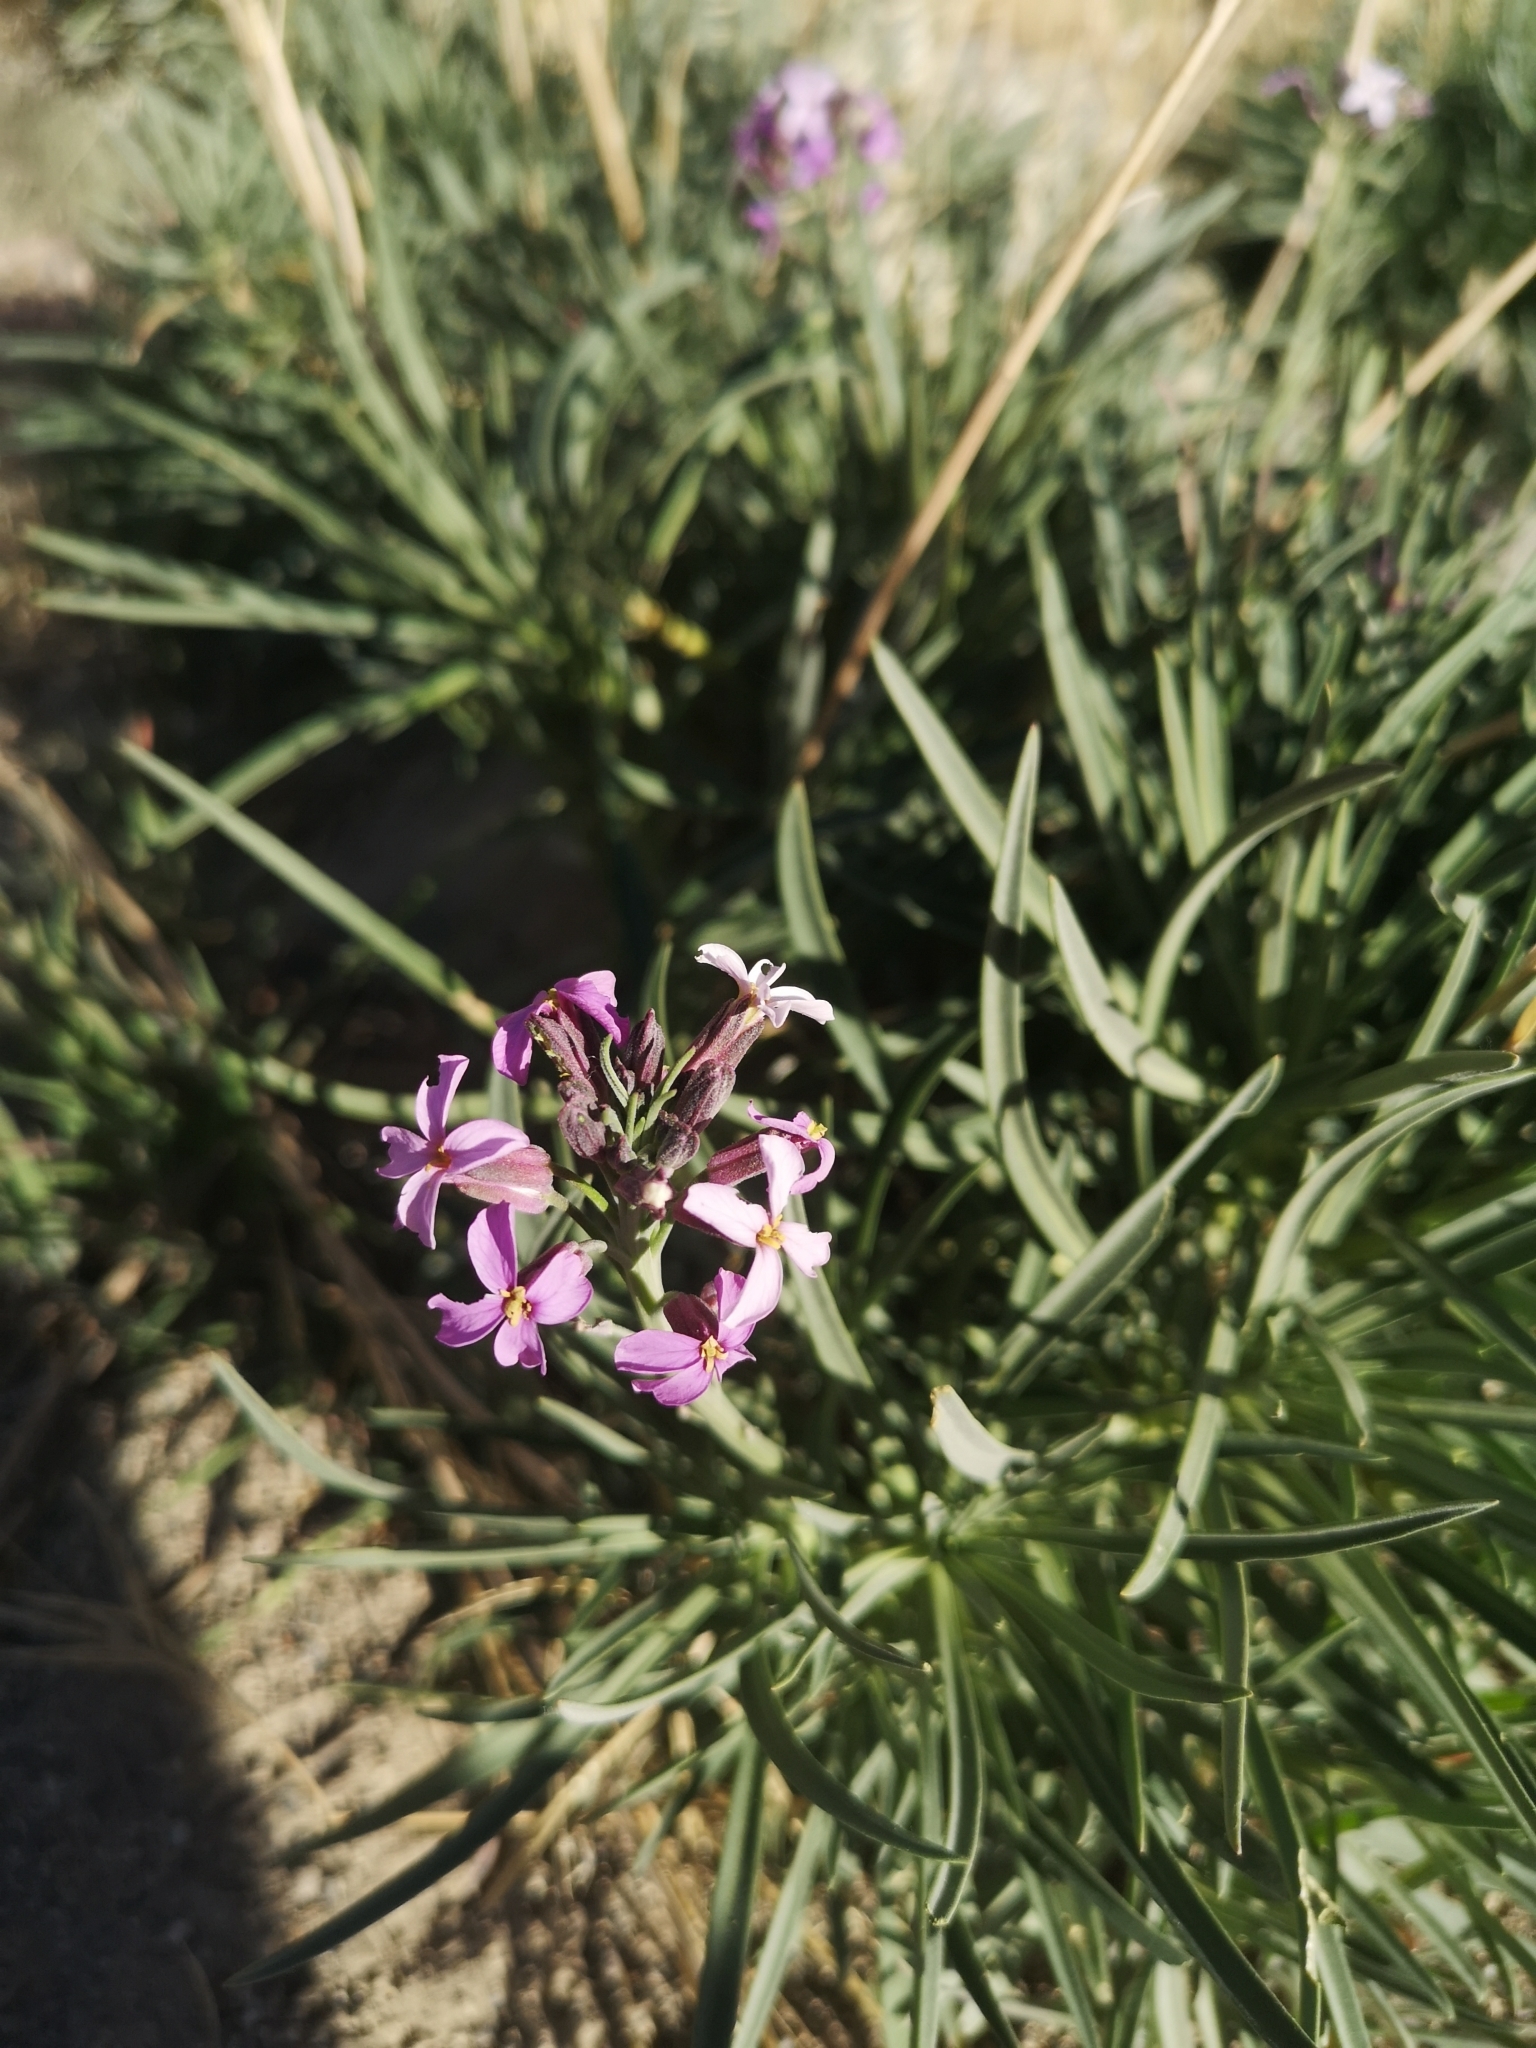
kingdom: Plantae
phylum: Tracheophyta
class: Magnoliopsida
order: Brassicales
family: Brassicaceae
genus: Erysimum
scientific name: Erysimum scoparium
